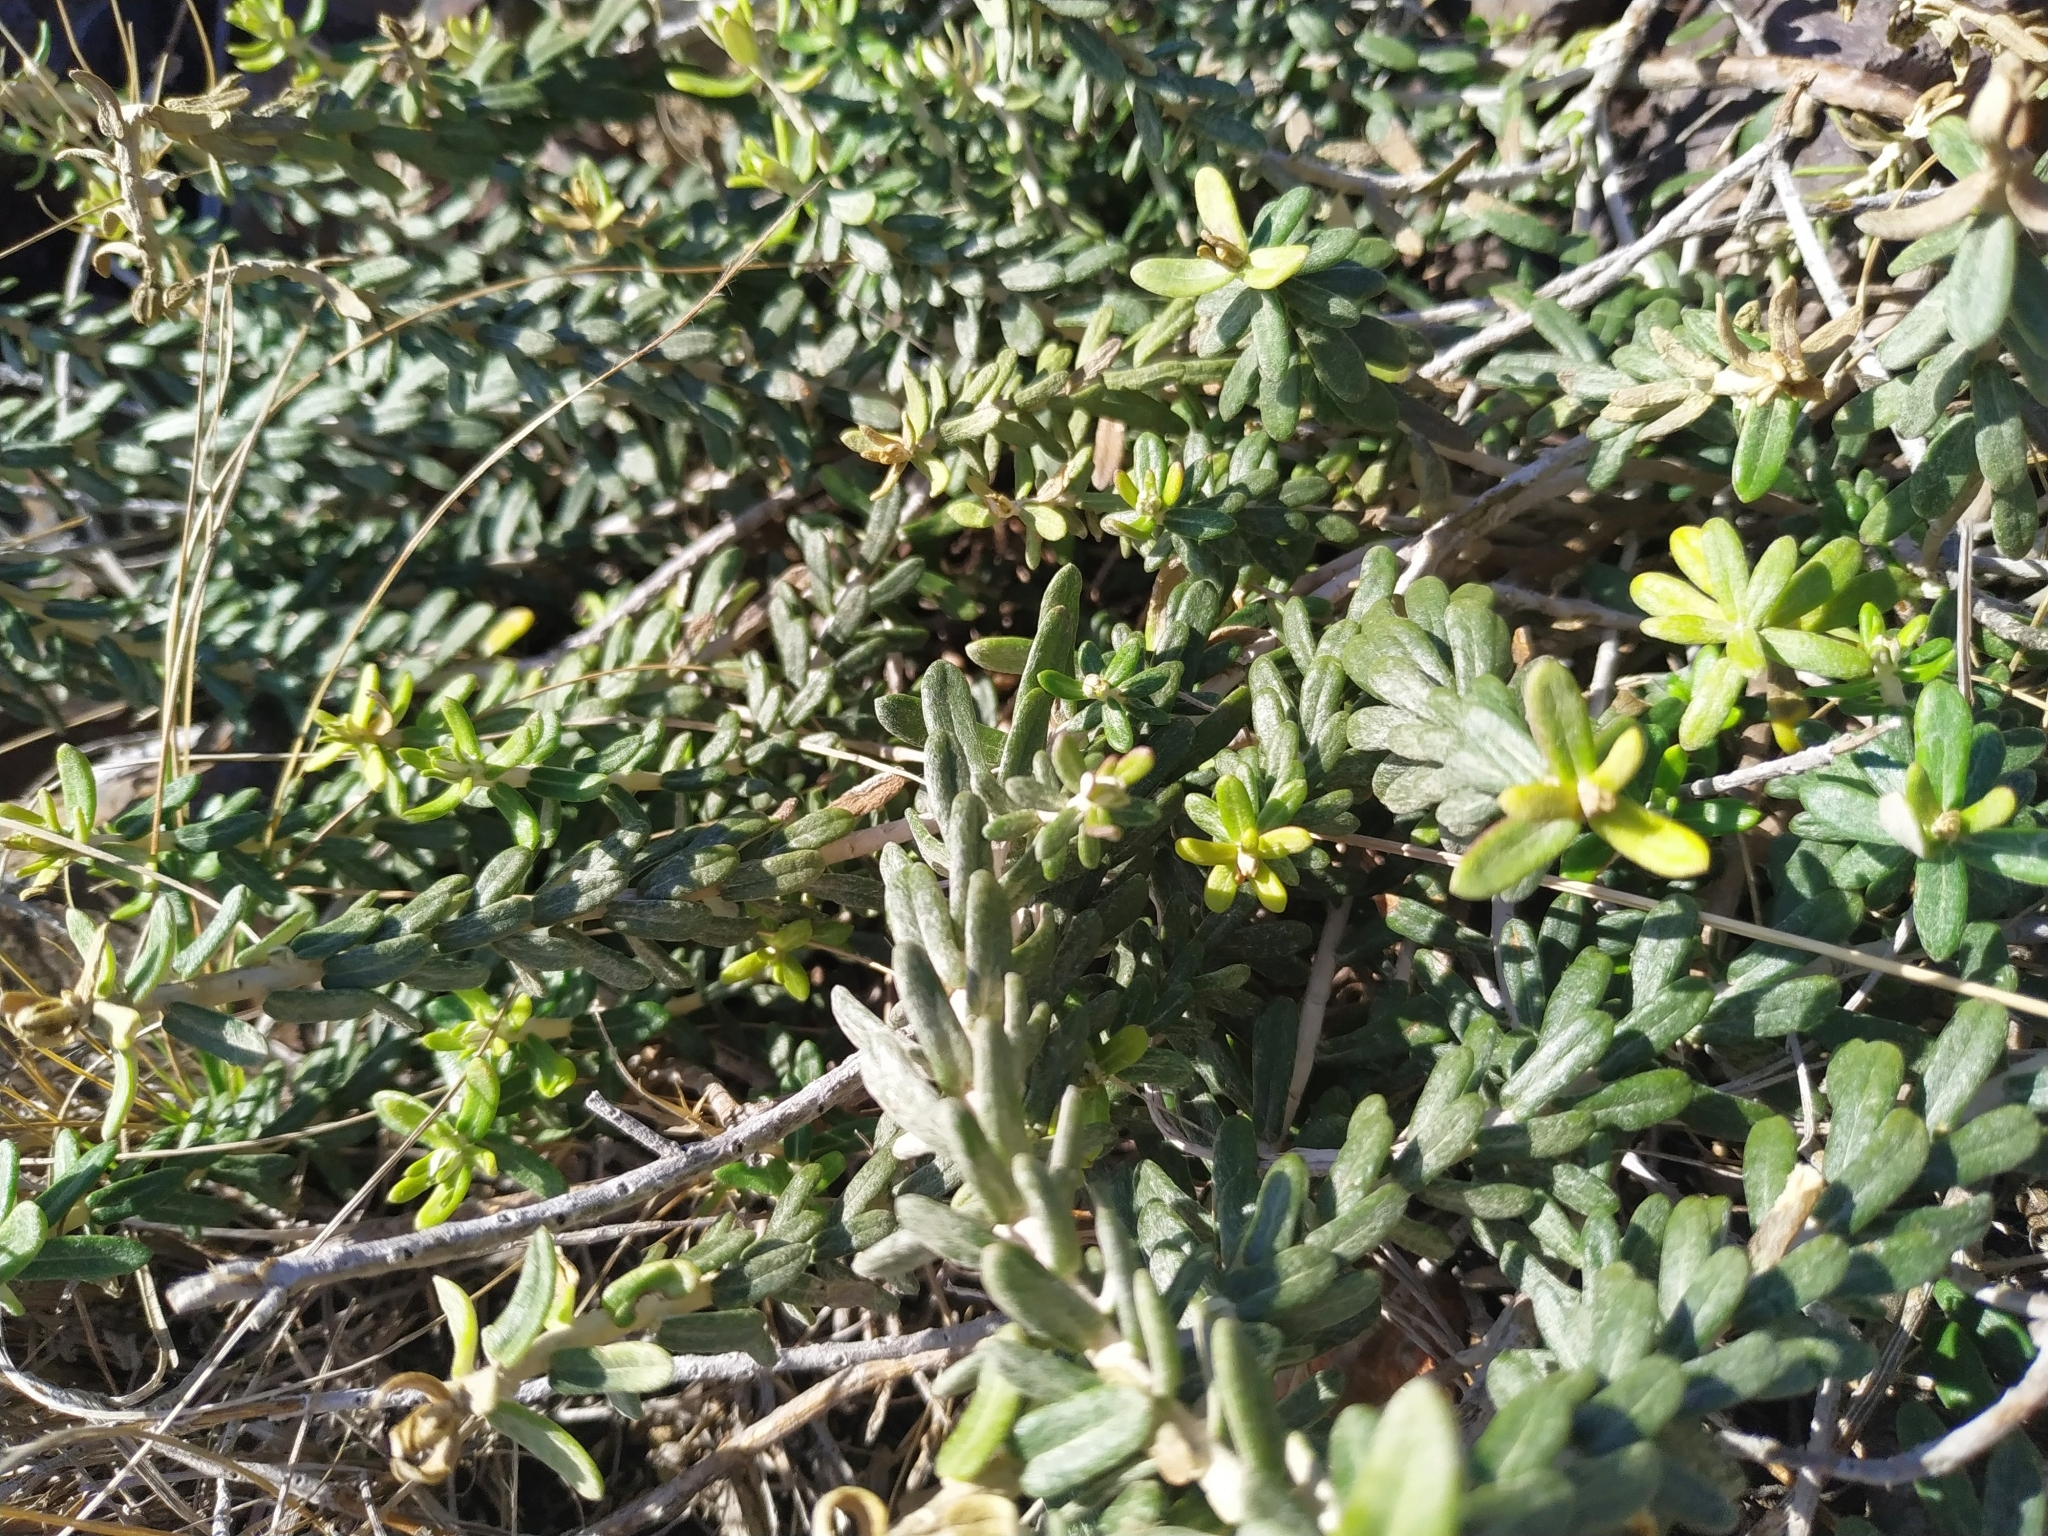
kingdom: Plantae
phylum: Tracheophyta
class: Magnoliopsida
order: Asterales
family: Asteraceae
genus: Baccharis
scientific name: Baccharis patens
